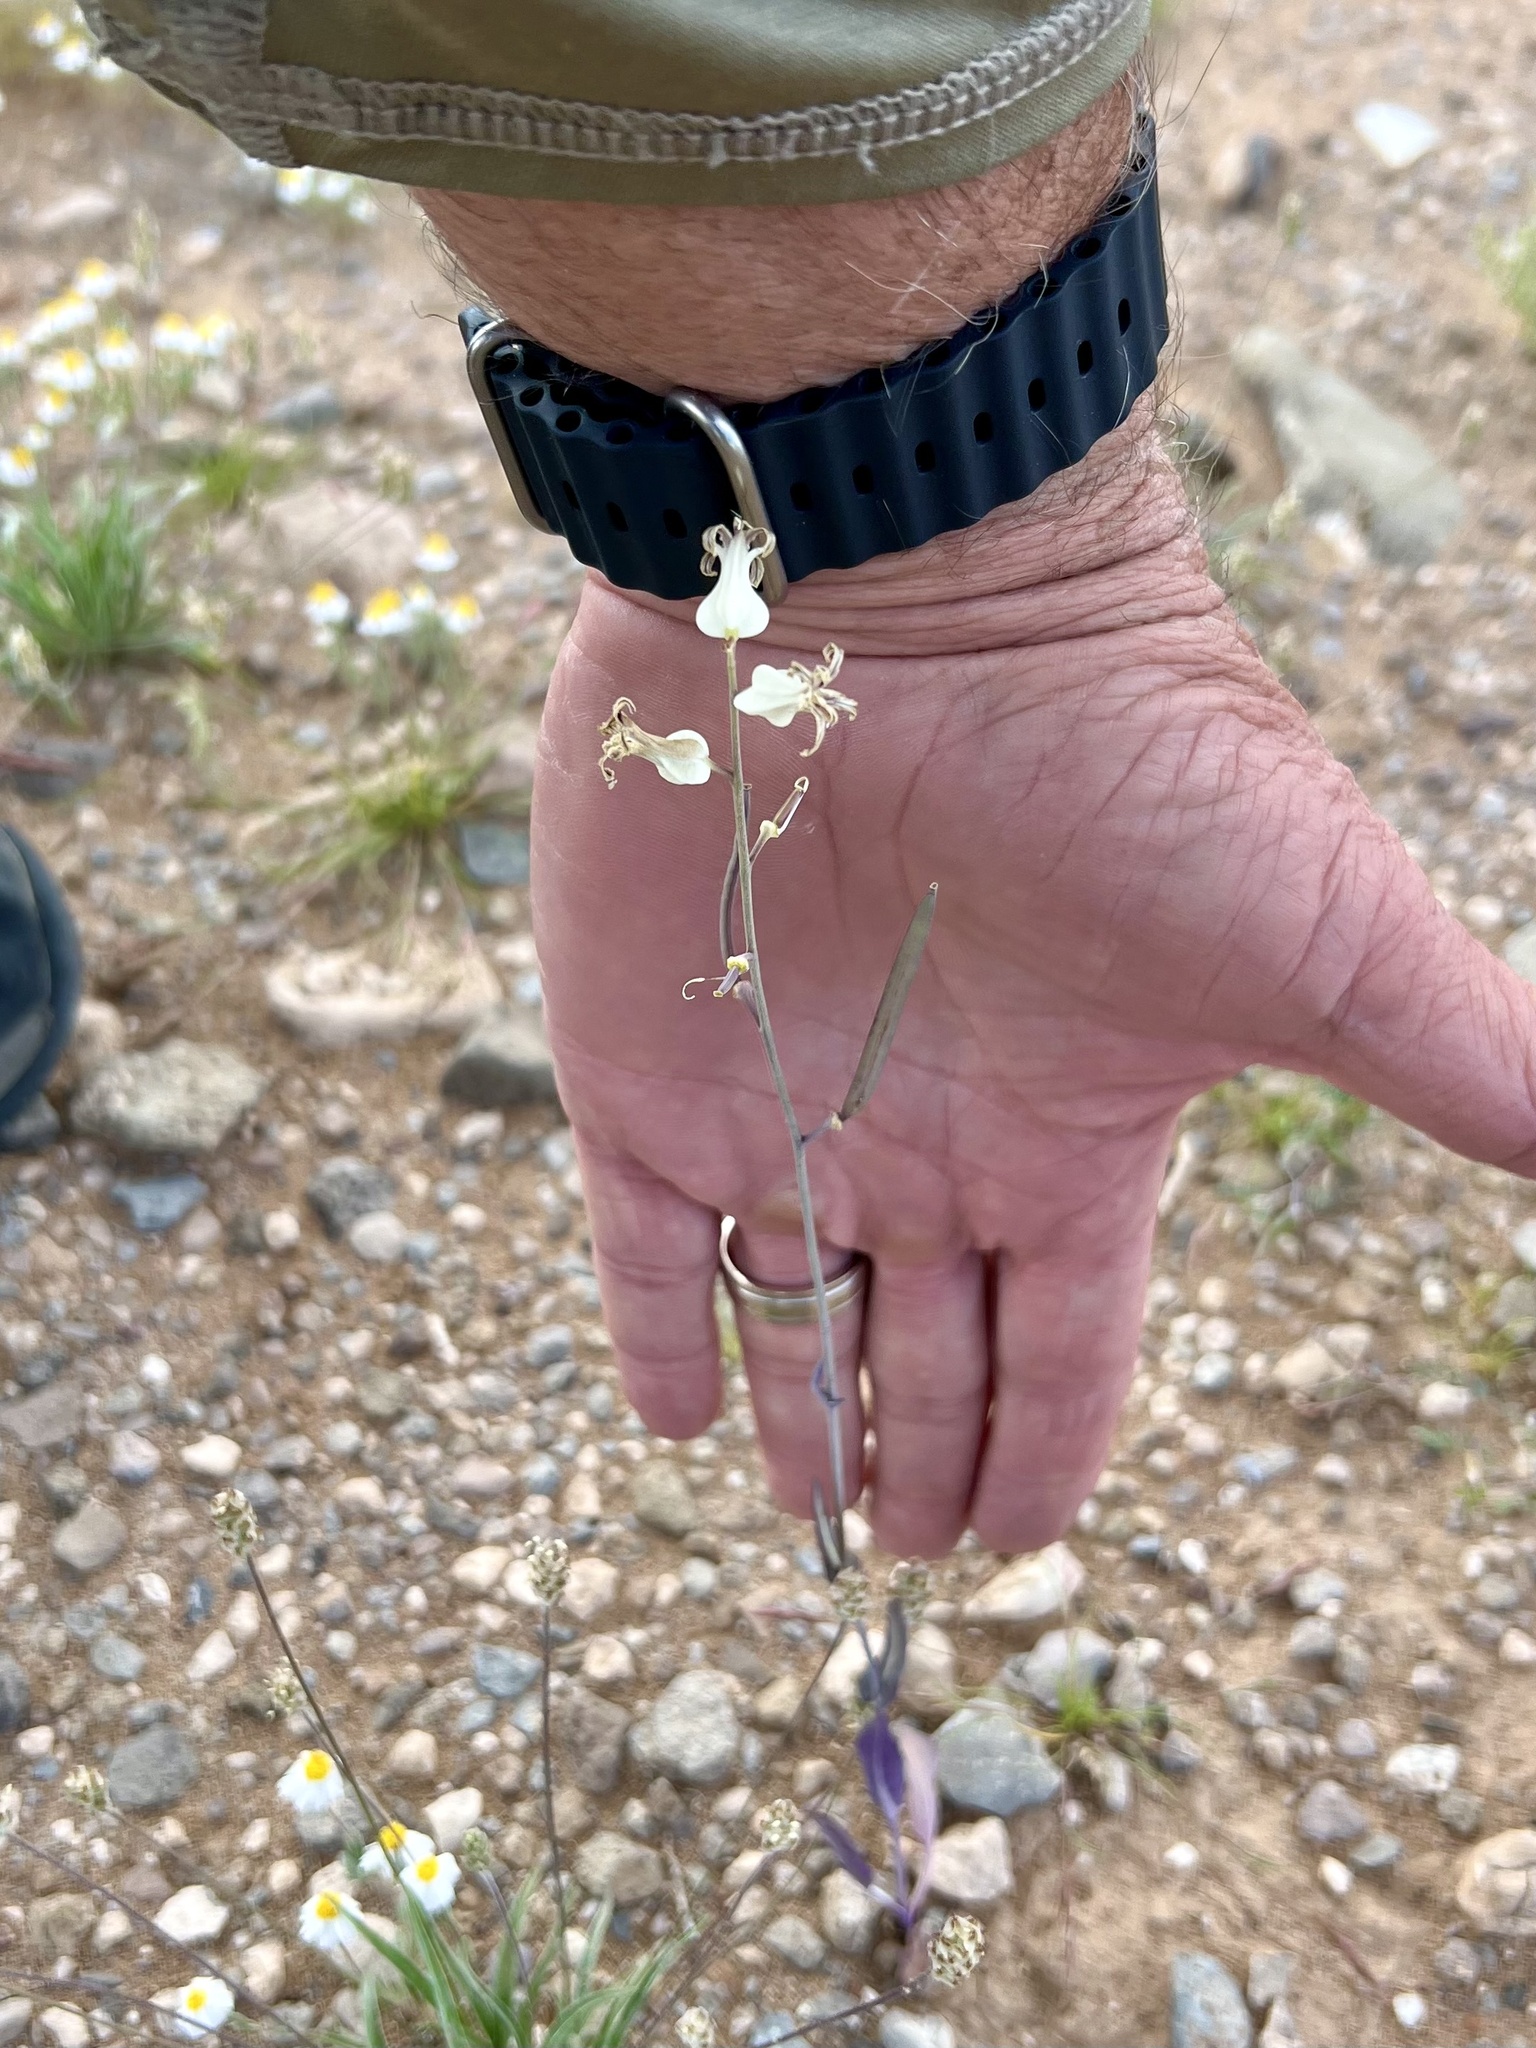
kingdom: Plantae
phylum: Tracheophyta
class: Magnoliopsida
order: Brassicales
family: Brassicaceae
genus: Streptanthus
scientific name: Streptanthus carinatus
